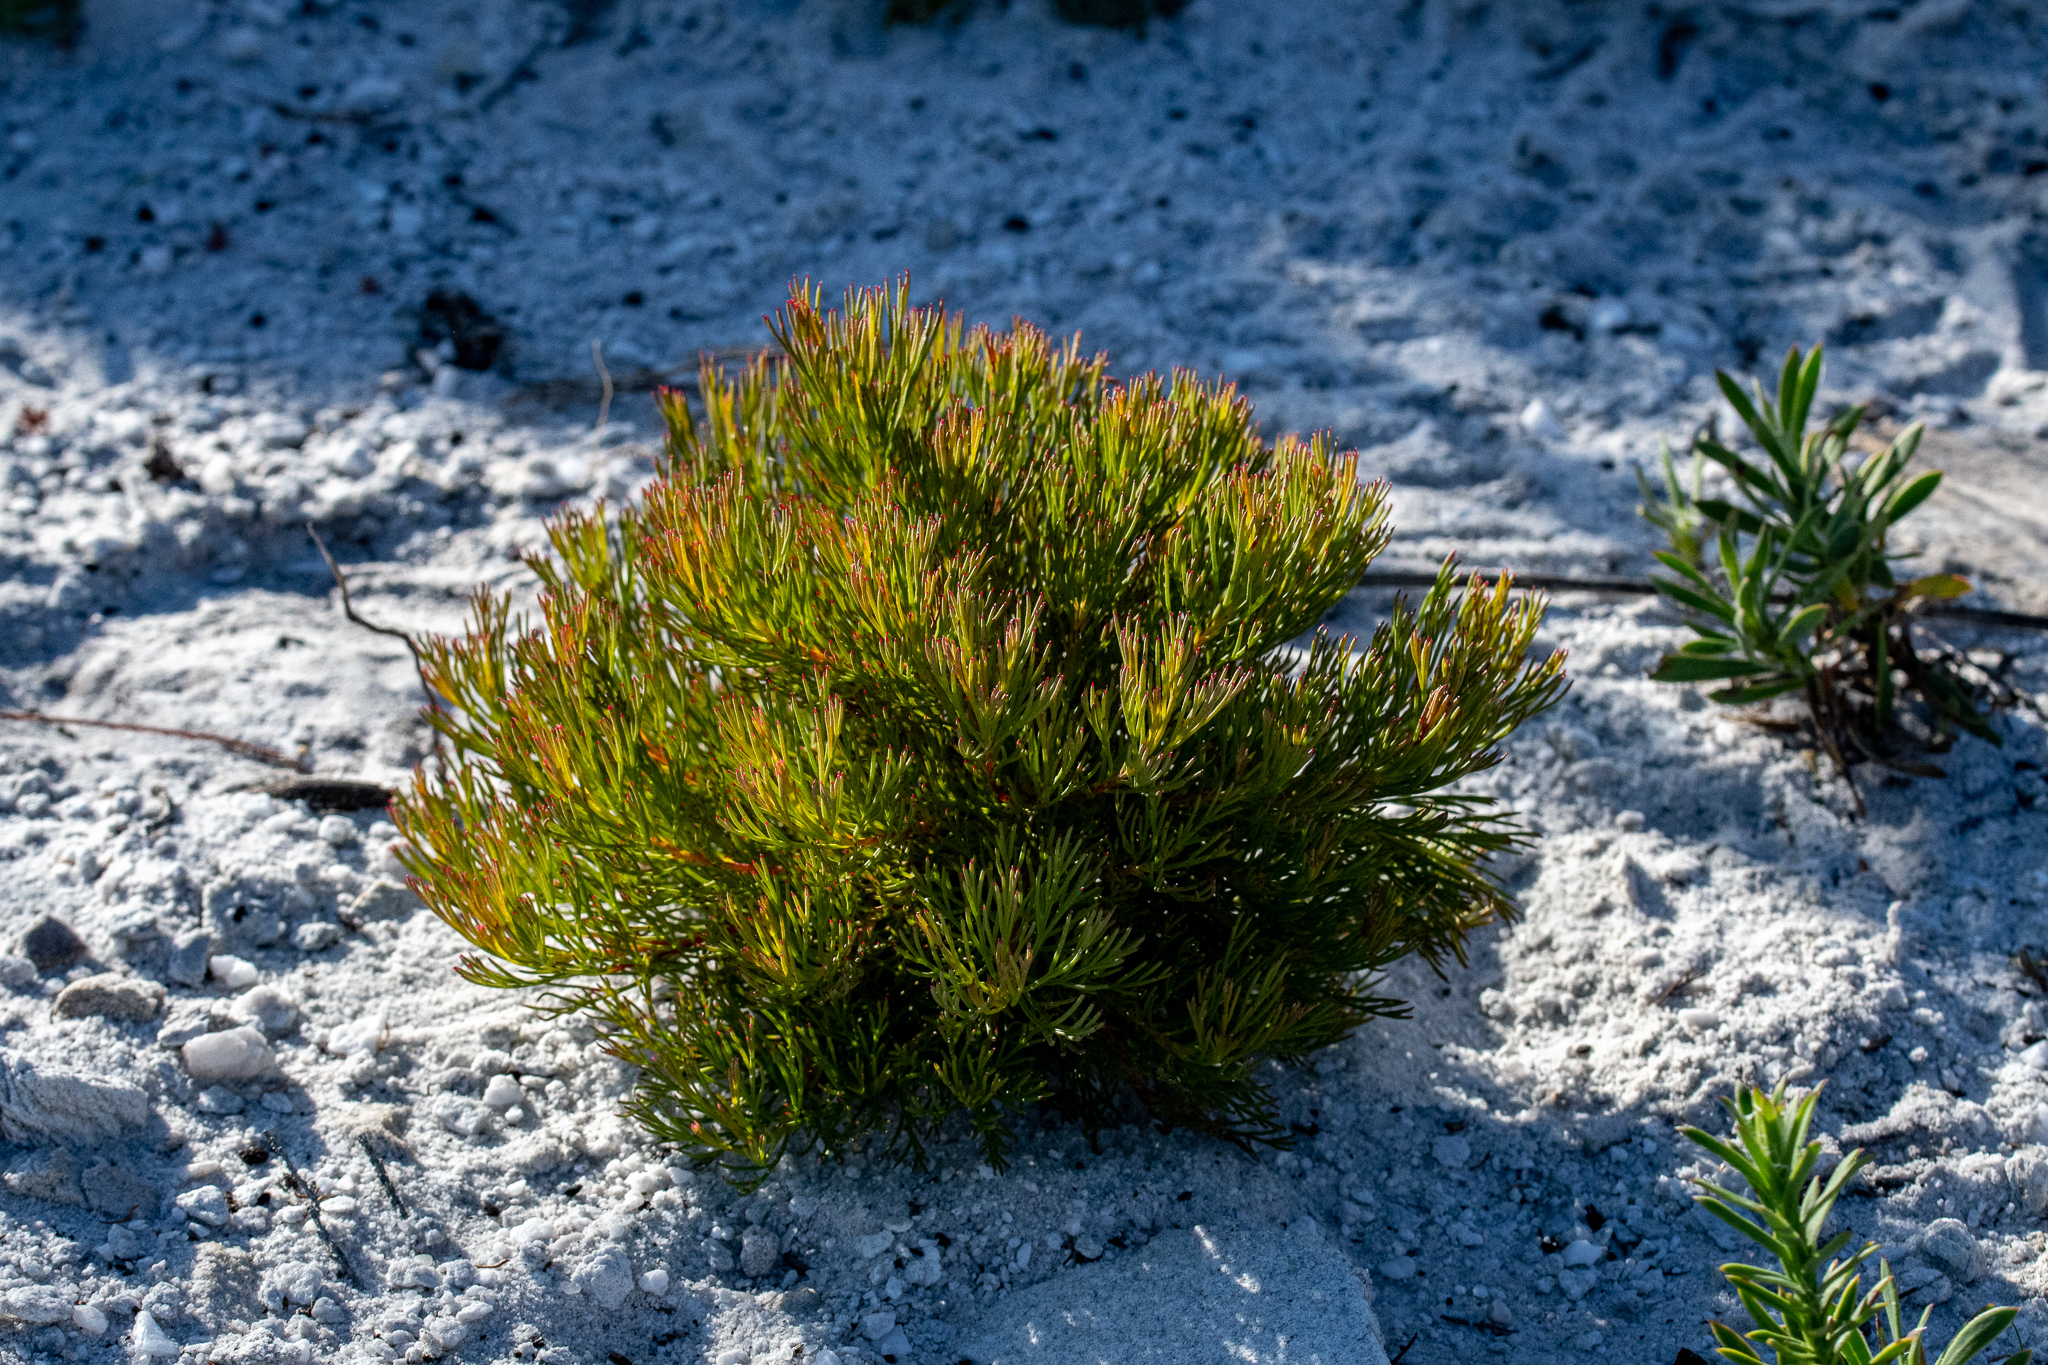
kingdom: Plantae
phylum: Tracheophyta
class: Magnoliopsida
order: Proteales
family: Proteaceae
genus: Serruria
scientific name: Serruria nervosa
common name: Fluted spiderhead
